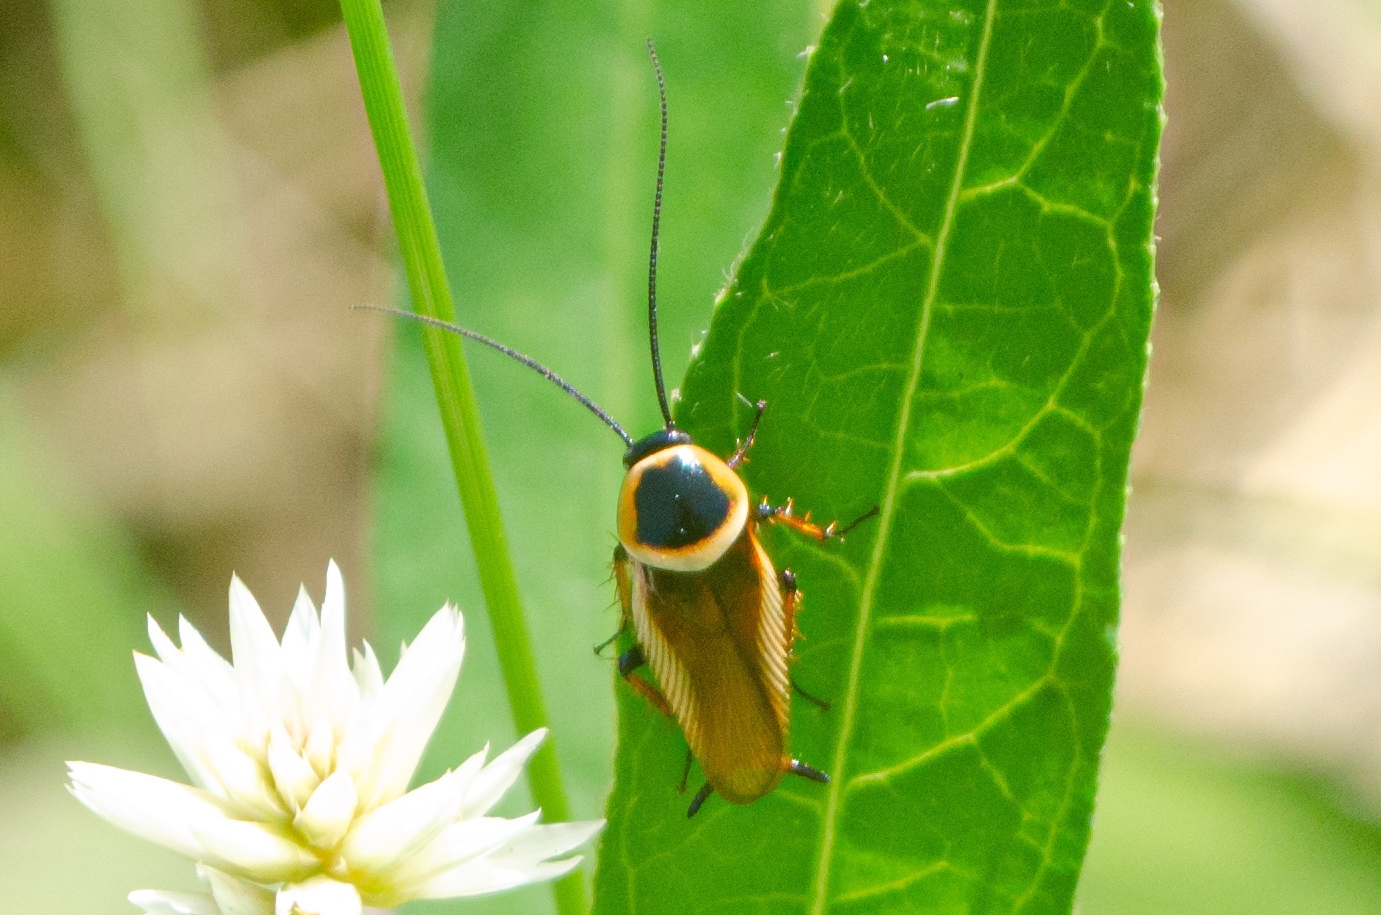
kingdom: Animalia
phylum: Arthropoda
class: Insecta
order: Blattodea
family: Ectobiidae
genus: Pseudomops
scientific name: Pseudomops neglectus
